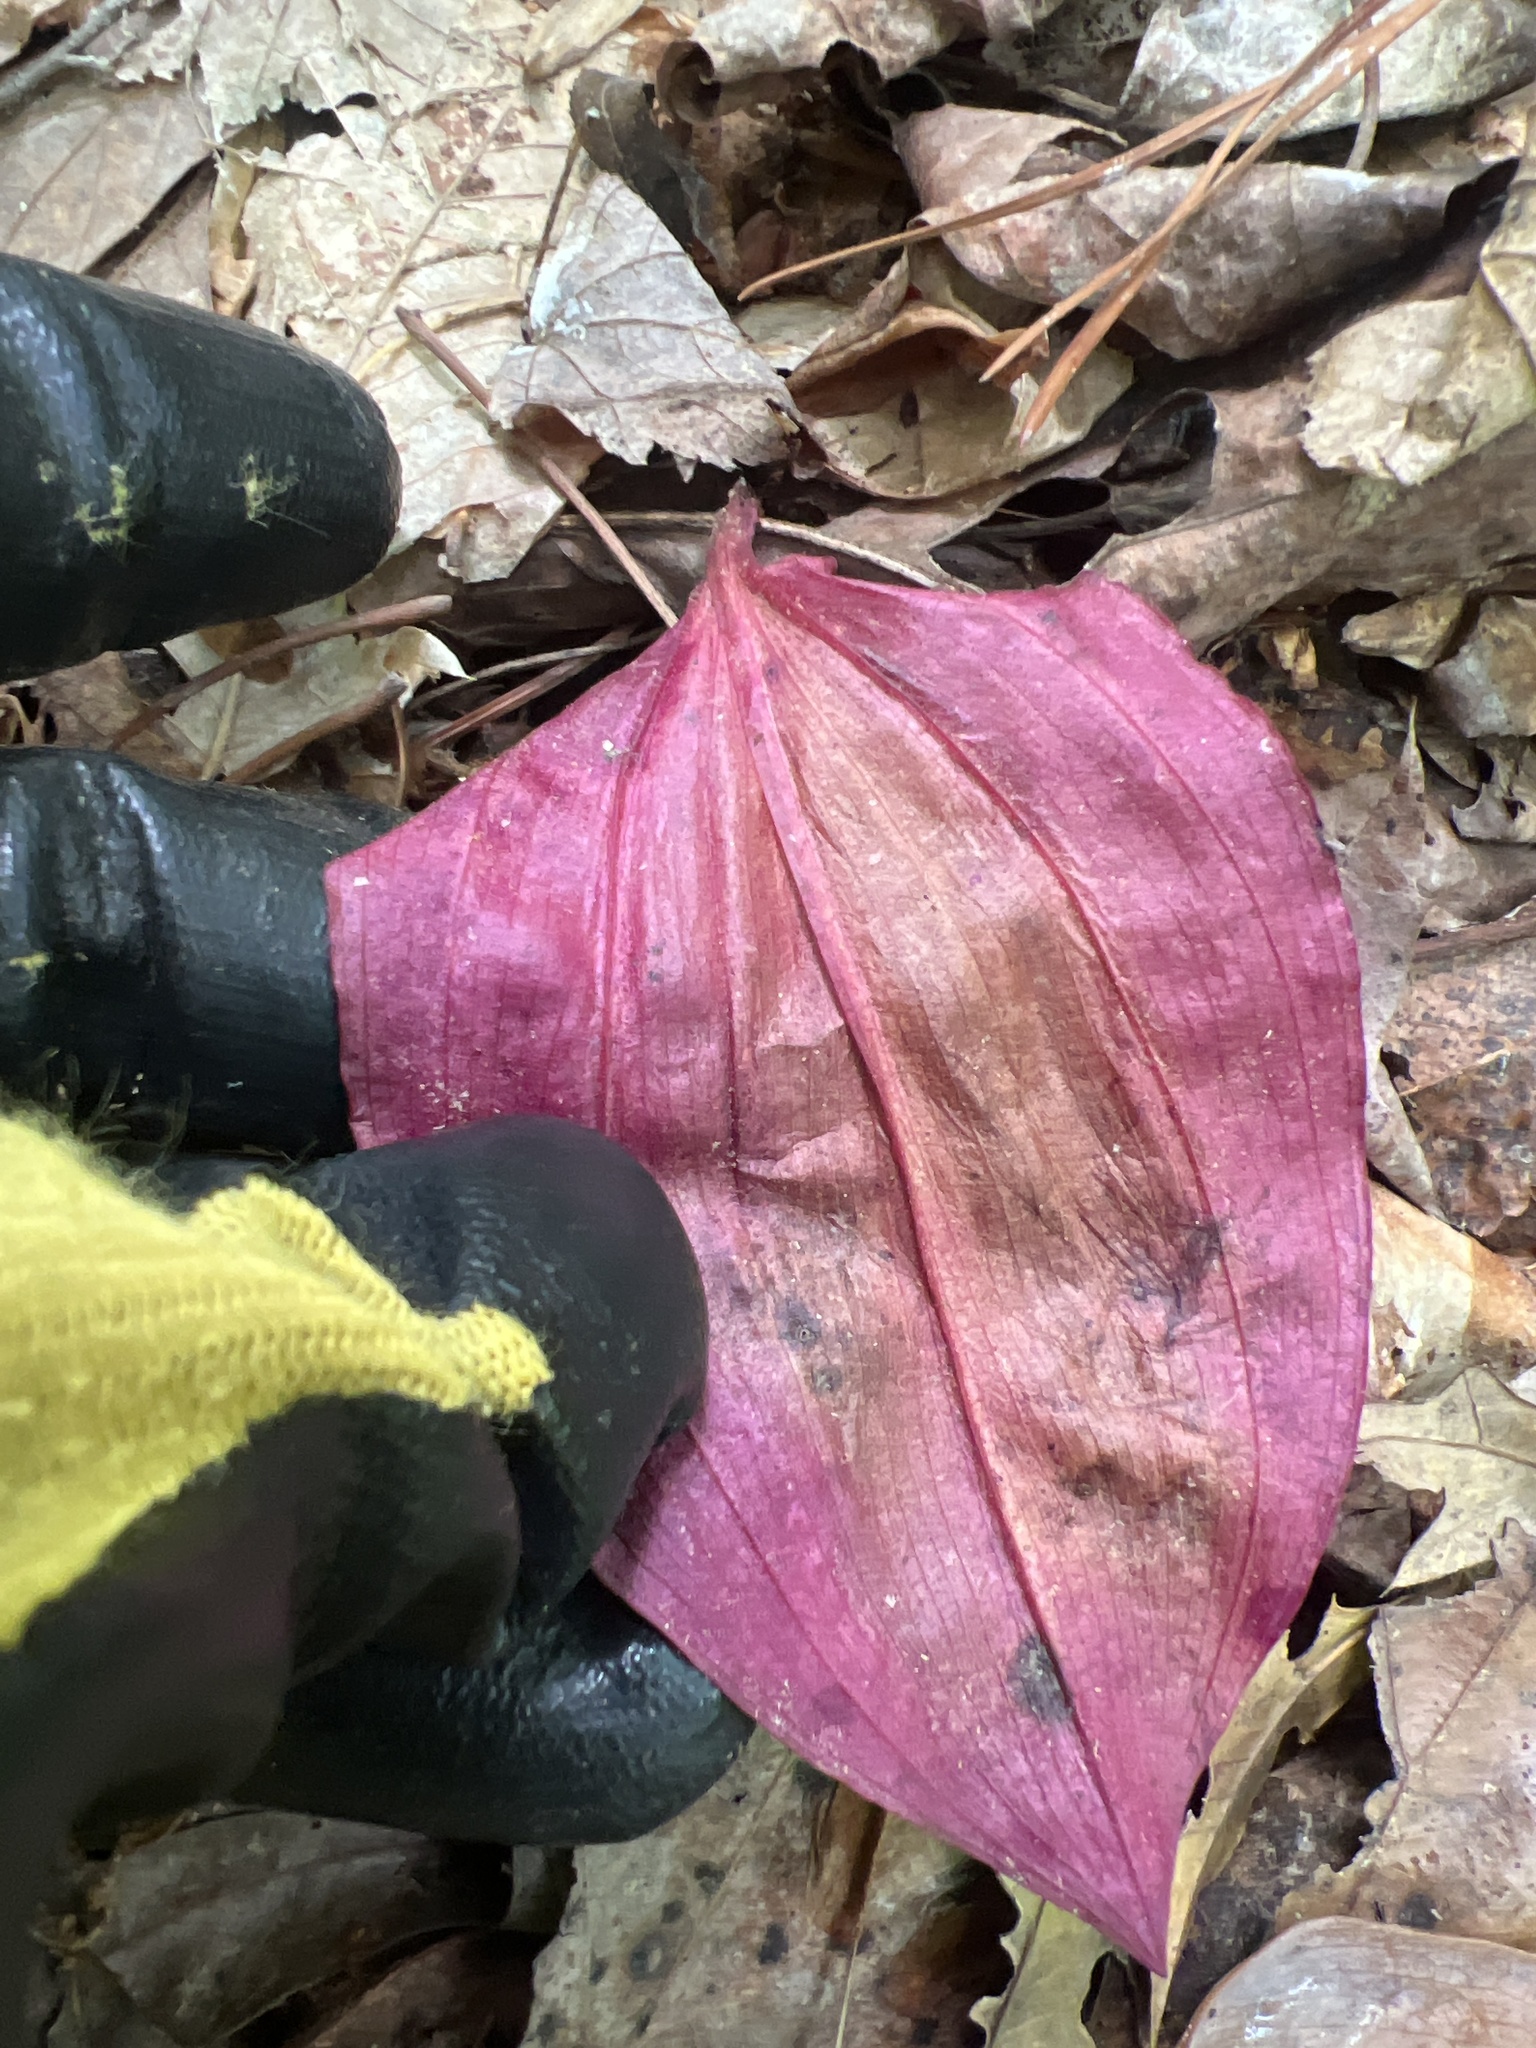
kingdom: Plantae
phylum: Tracheophyta
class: Liliopsida
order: Asparagales
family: Orchidaceae
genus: Tipularia
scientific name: Tipularia discolor
